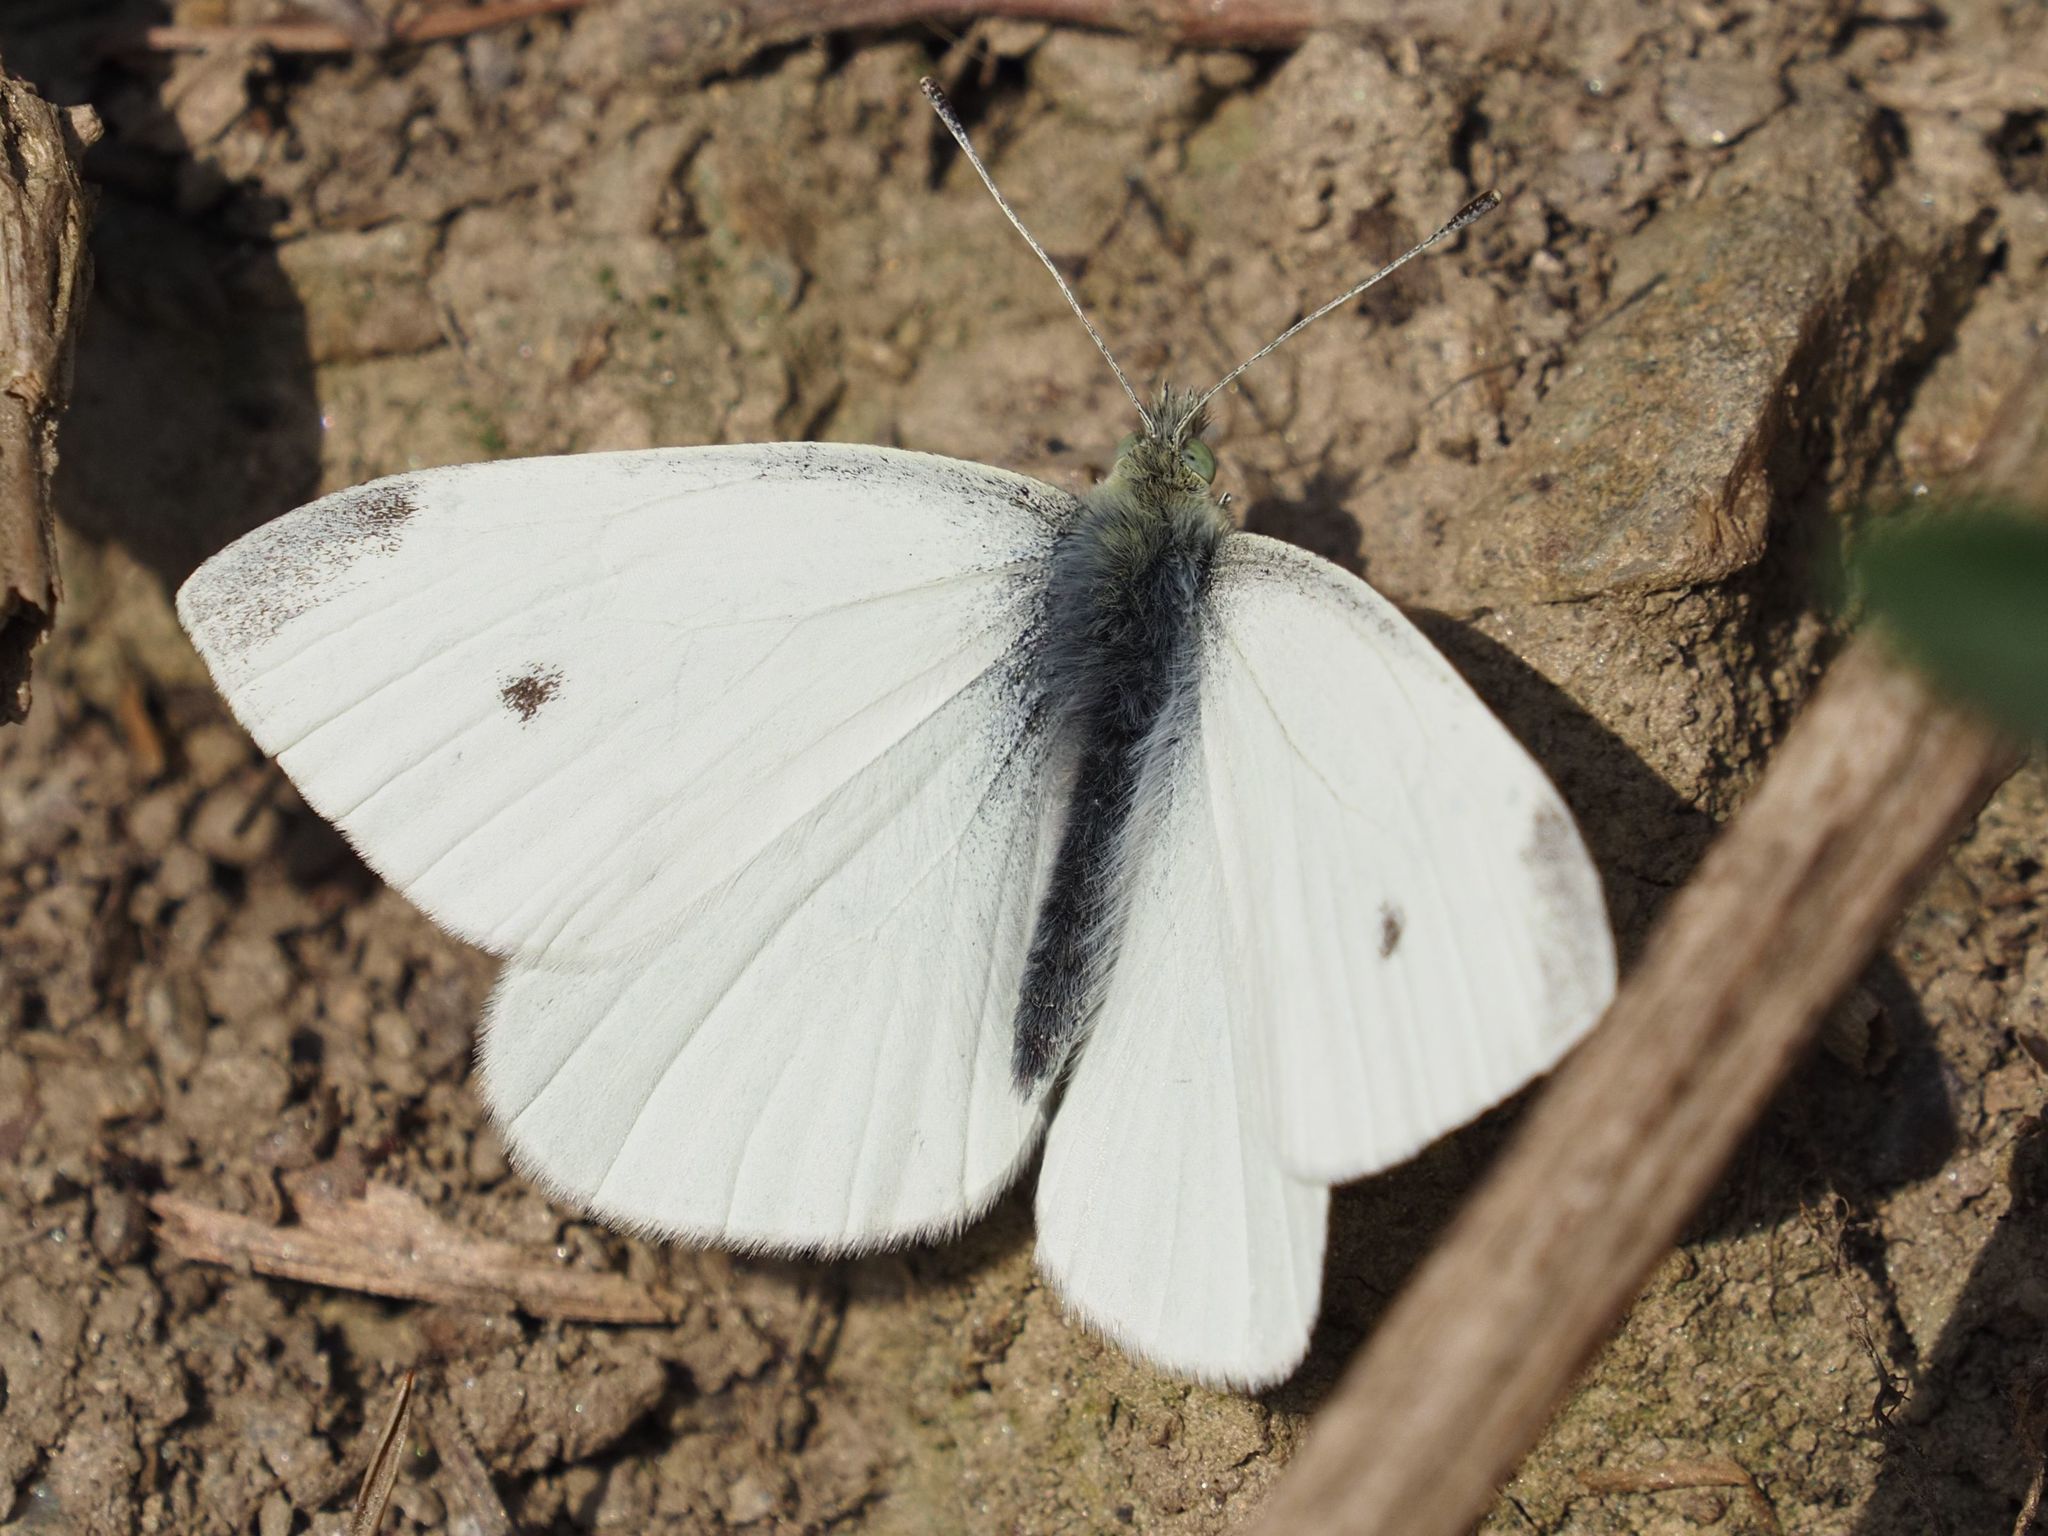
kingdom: Animalia
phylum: Arthropoda
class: Insecta
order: Lepidoptera
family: Pieridae
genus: Pieris
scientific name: Pieris rapae
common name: Small white
